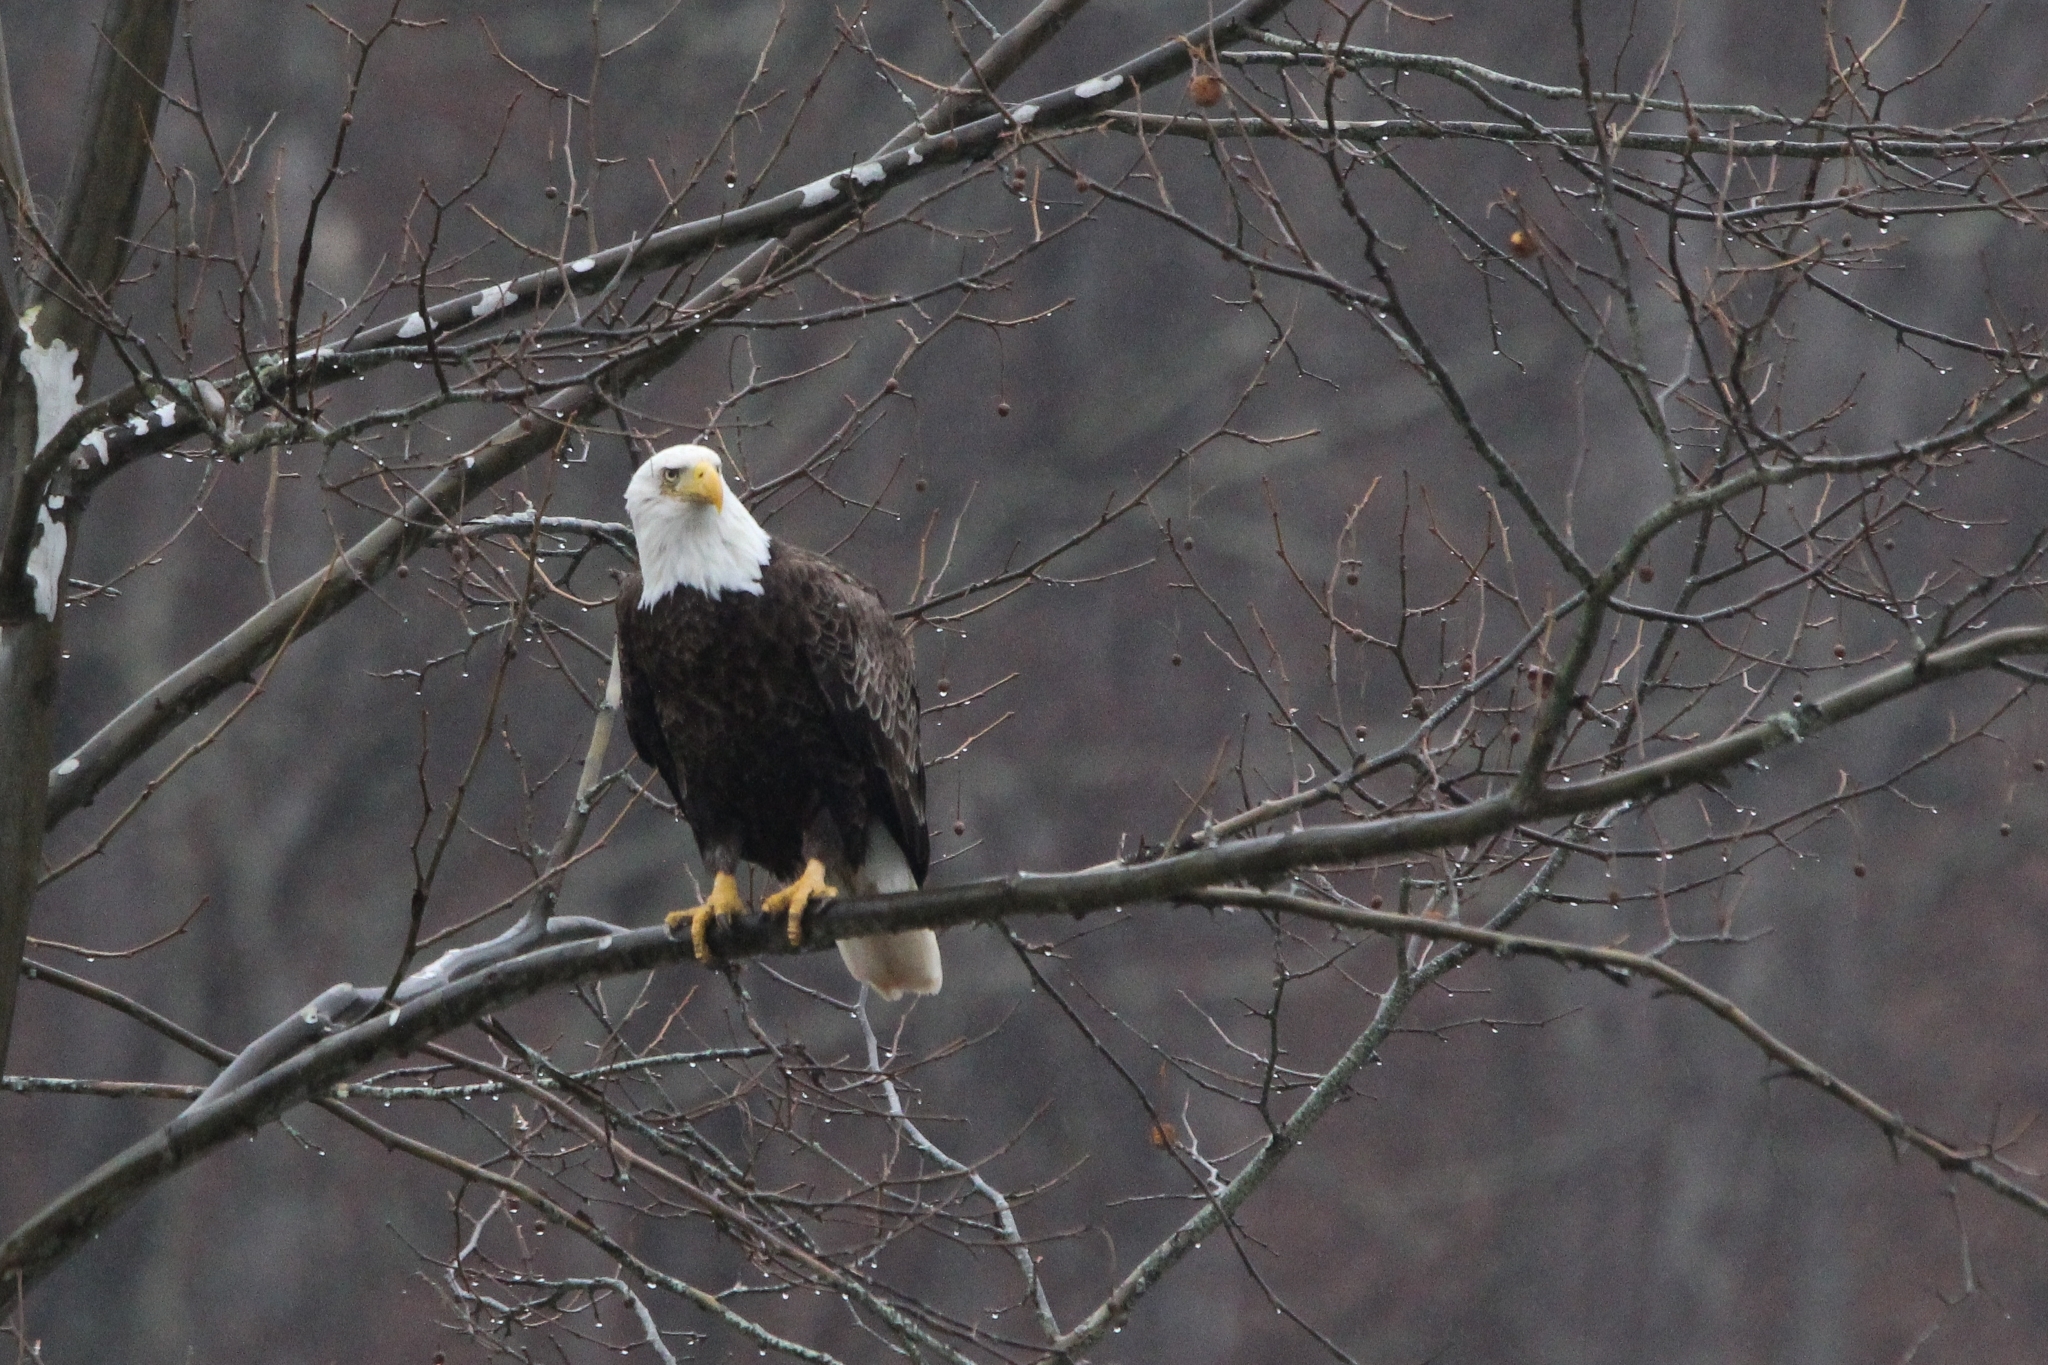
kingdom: Animalia
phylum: Chordata
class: Aves
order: Accipitriformes
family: Accipitridae
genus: Haliaeetus
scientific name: Haliaeetus leucocephalus
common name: Bald eagle
